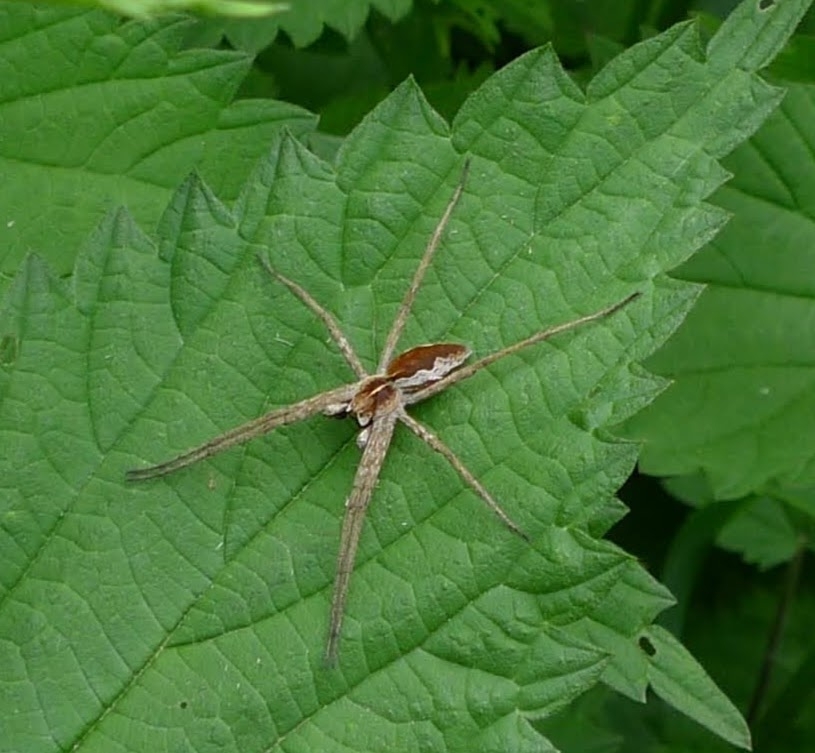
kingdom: Animalia
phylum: Arthropoda
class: Arachnida
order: Araneae
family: Pisauridae
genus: Pisaura
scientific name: Pisaura mirabilis
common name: Tent spider
